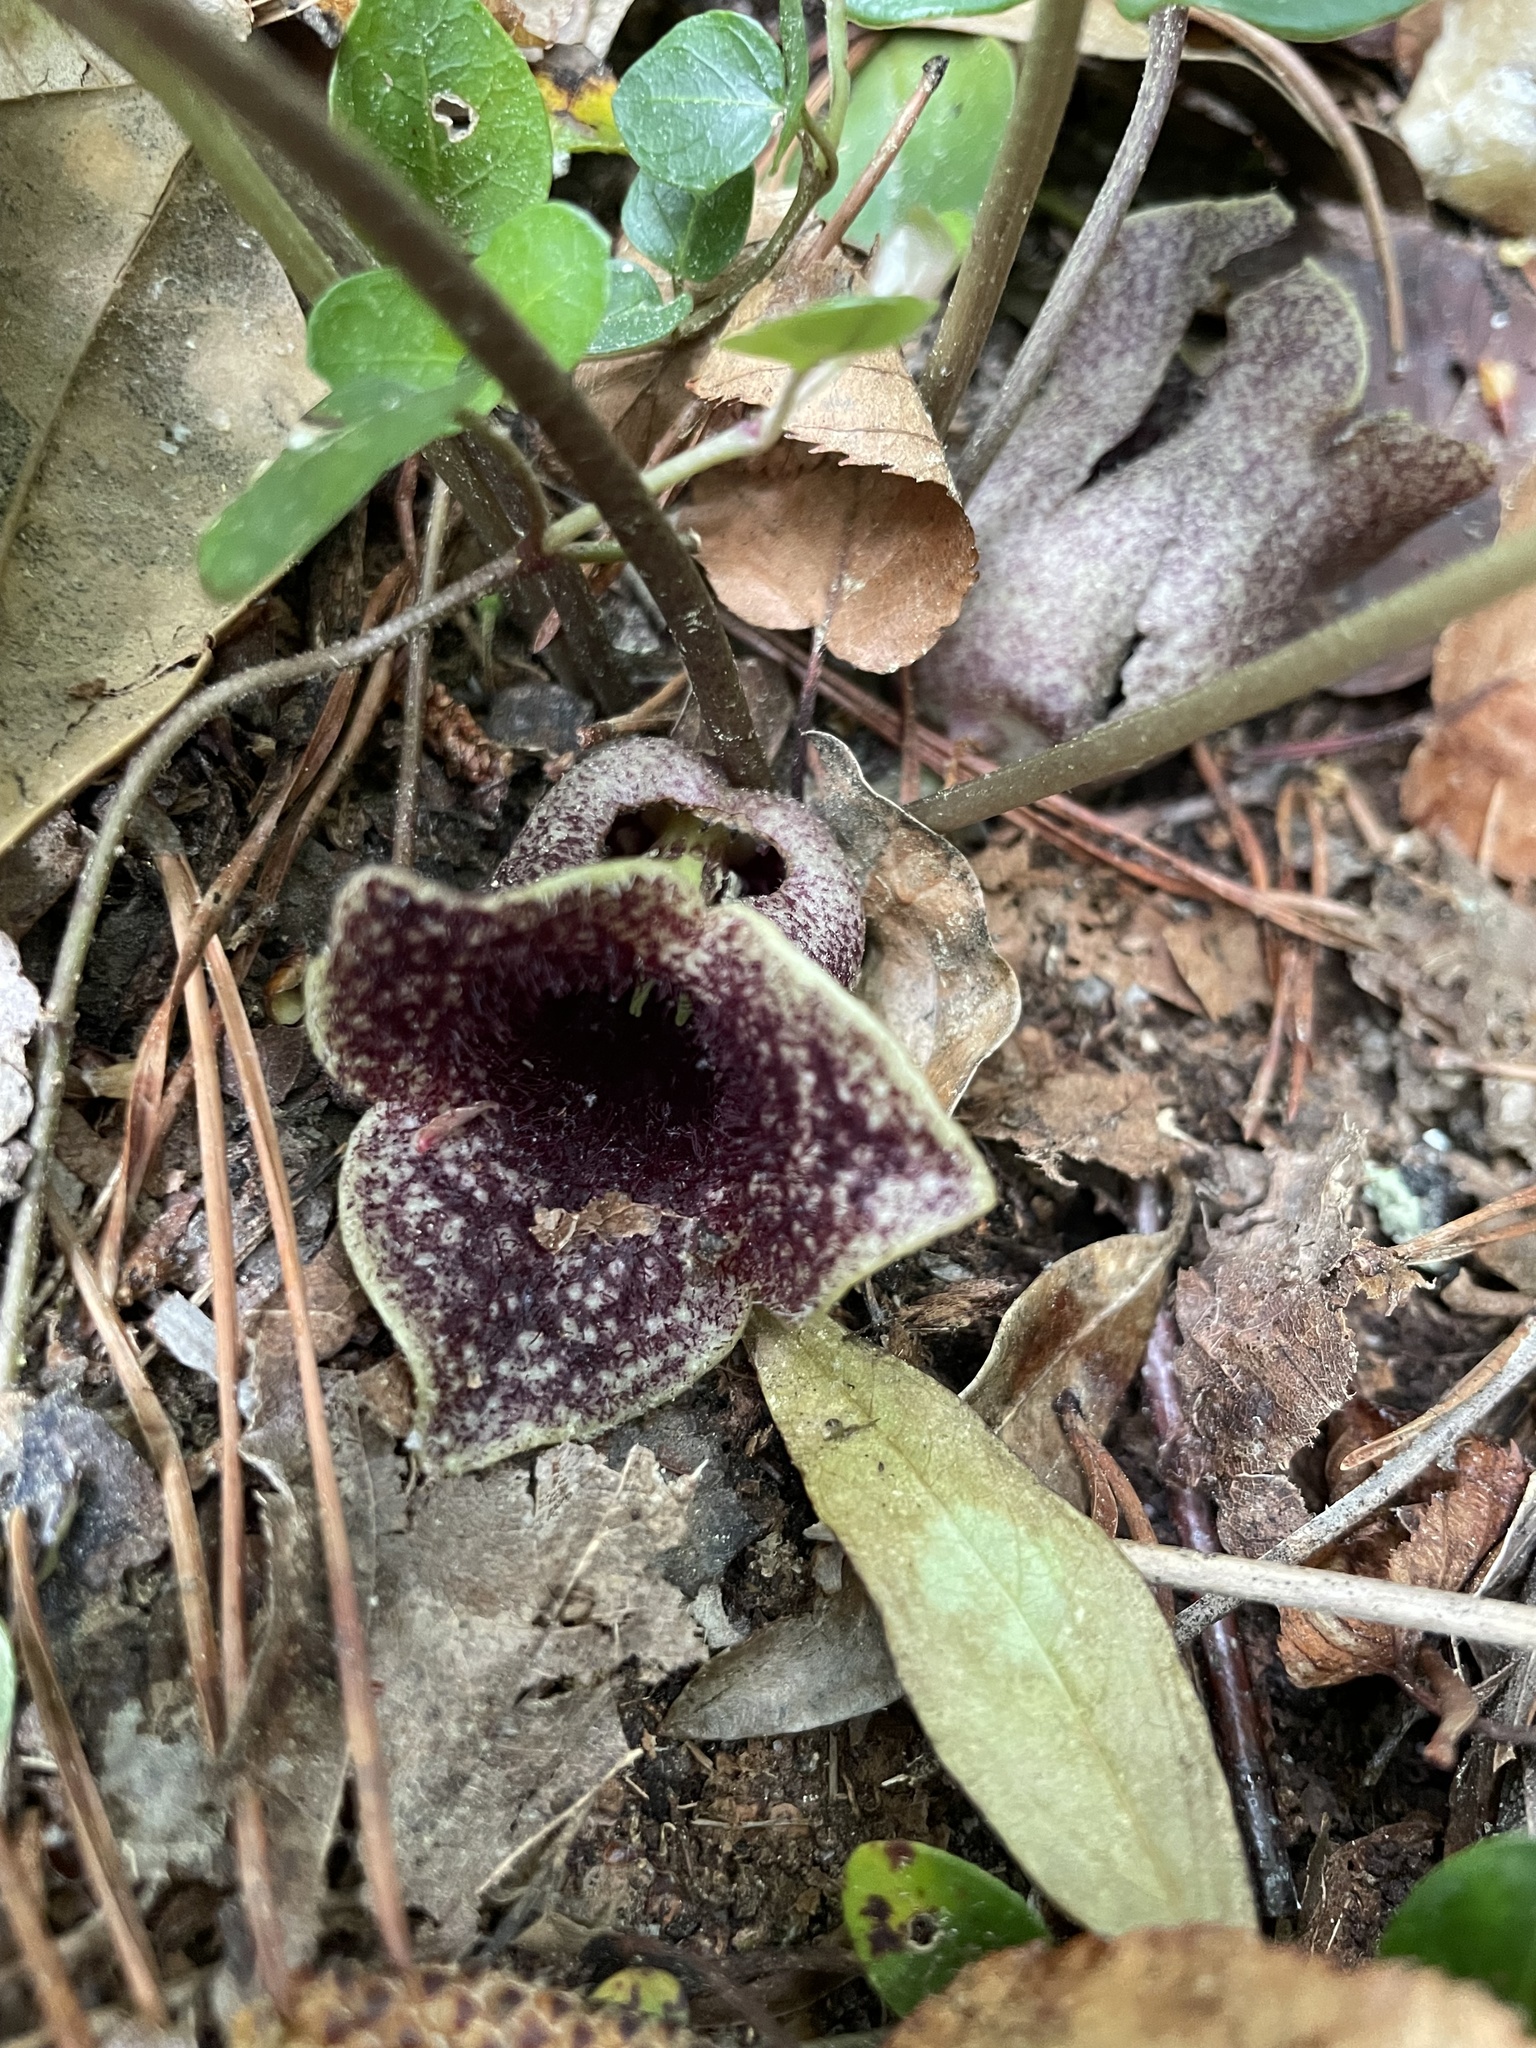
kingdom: Plantae
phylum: Tracheophyta
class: Magnoliopsida
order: Piperales
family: Aristolochiaceae
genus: Hexastylis
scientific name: Hexastylis shuttleworthii
